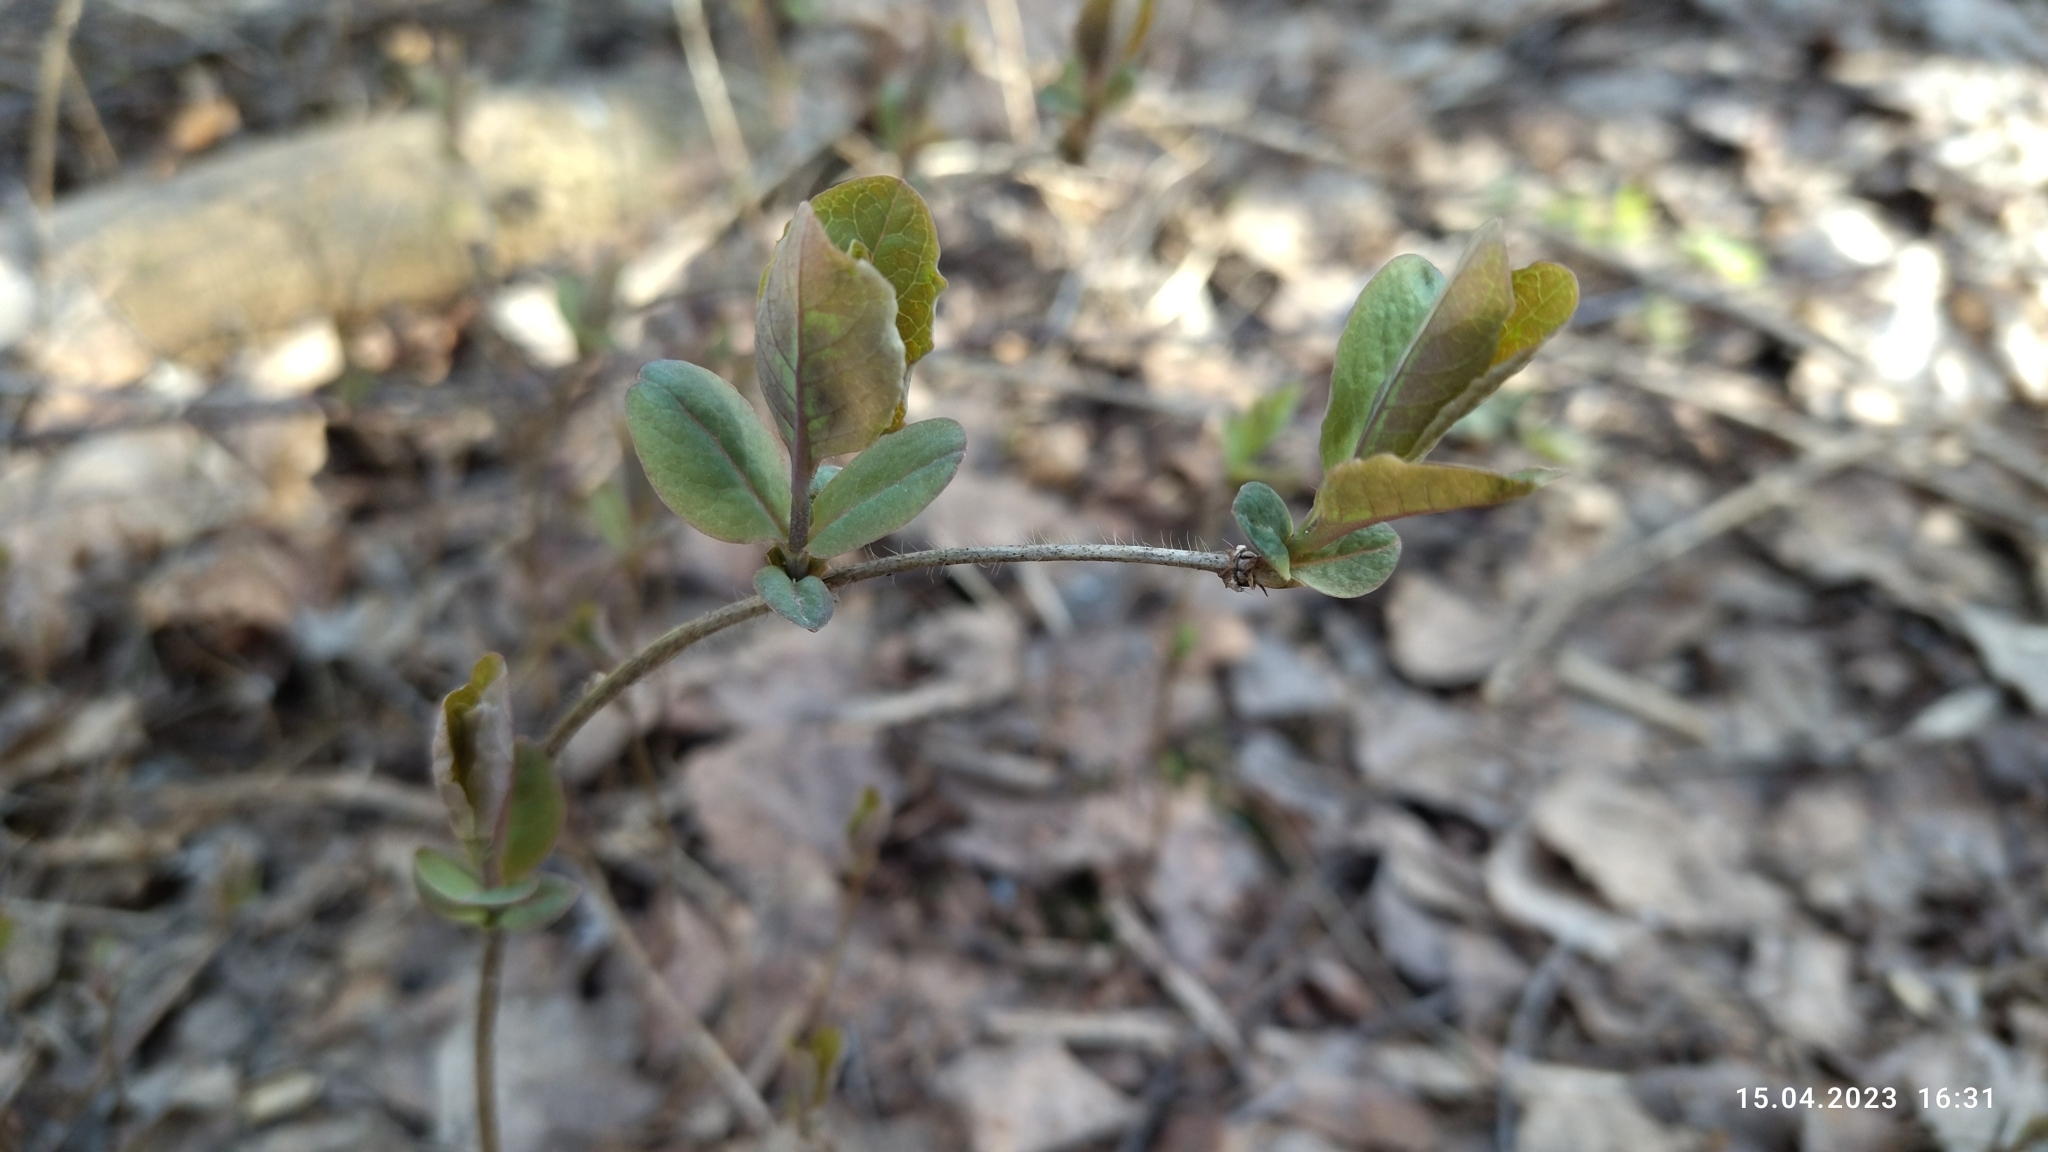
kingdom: Plantae
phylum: Tracheophyta
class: Magnoliopsida
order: Dipsacales
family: Caprifoliaceae
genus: Lonicera
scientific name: Lonicera caprifolium
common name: Perfoliate honeysuckle
